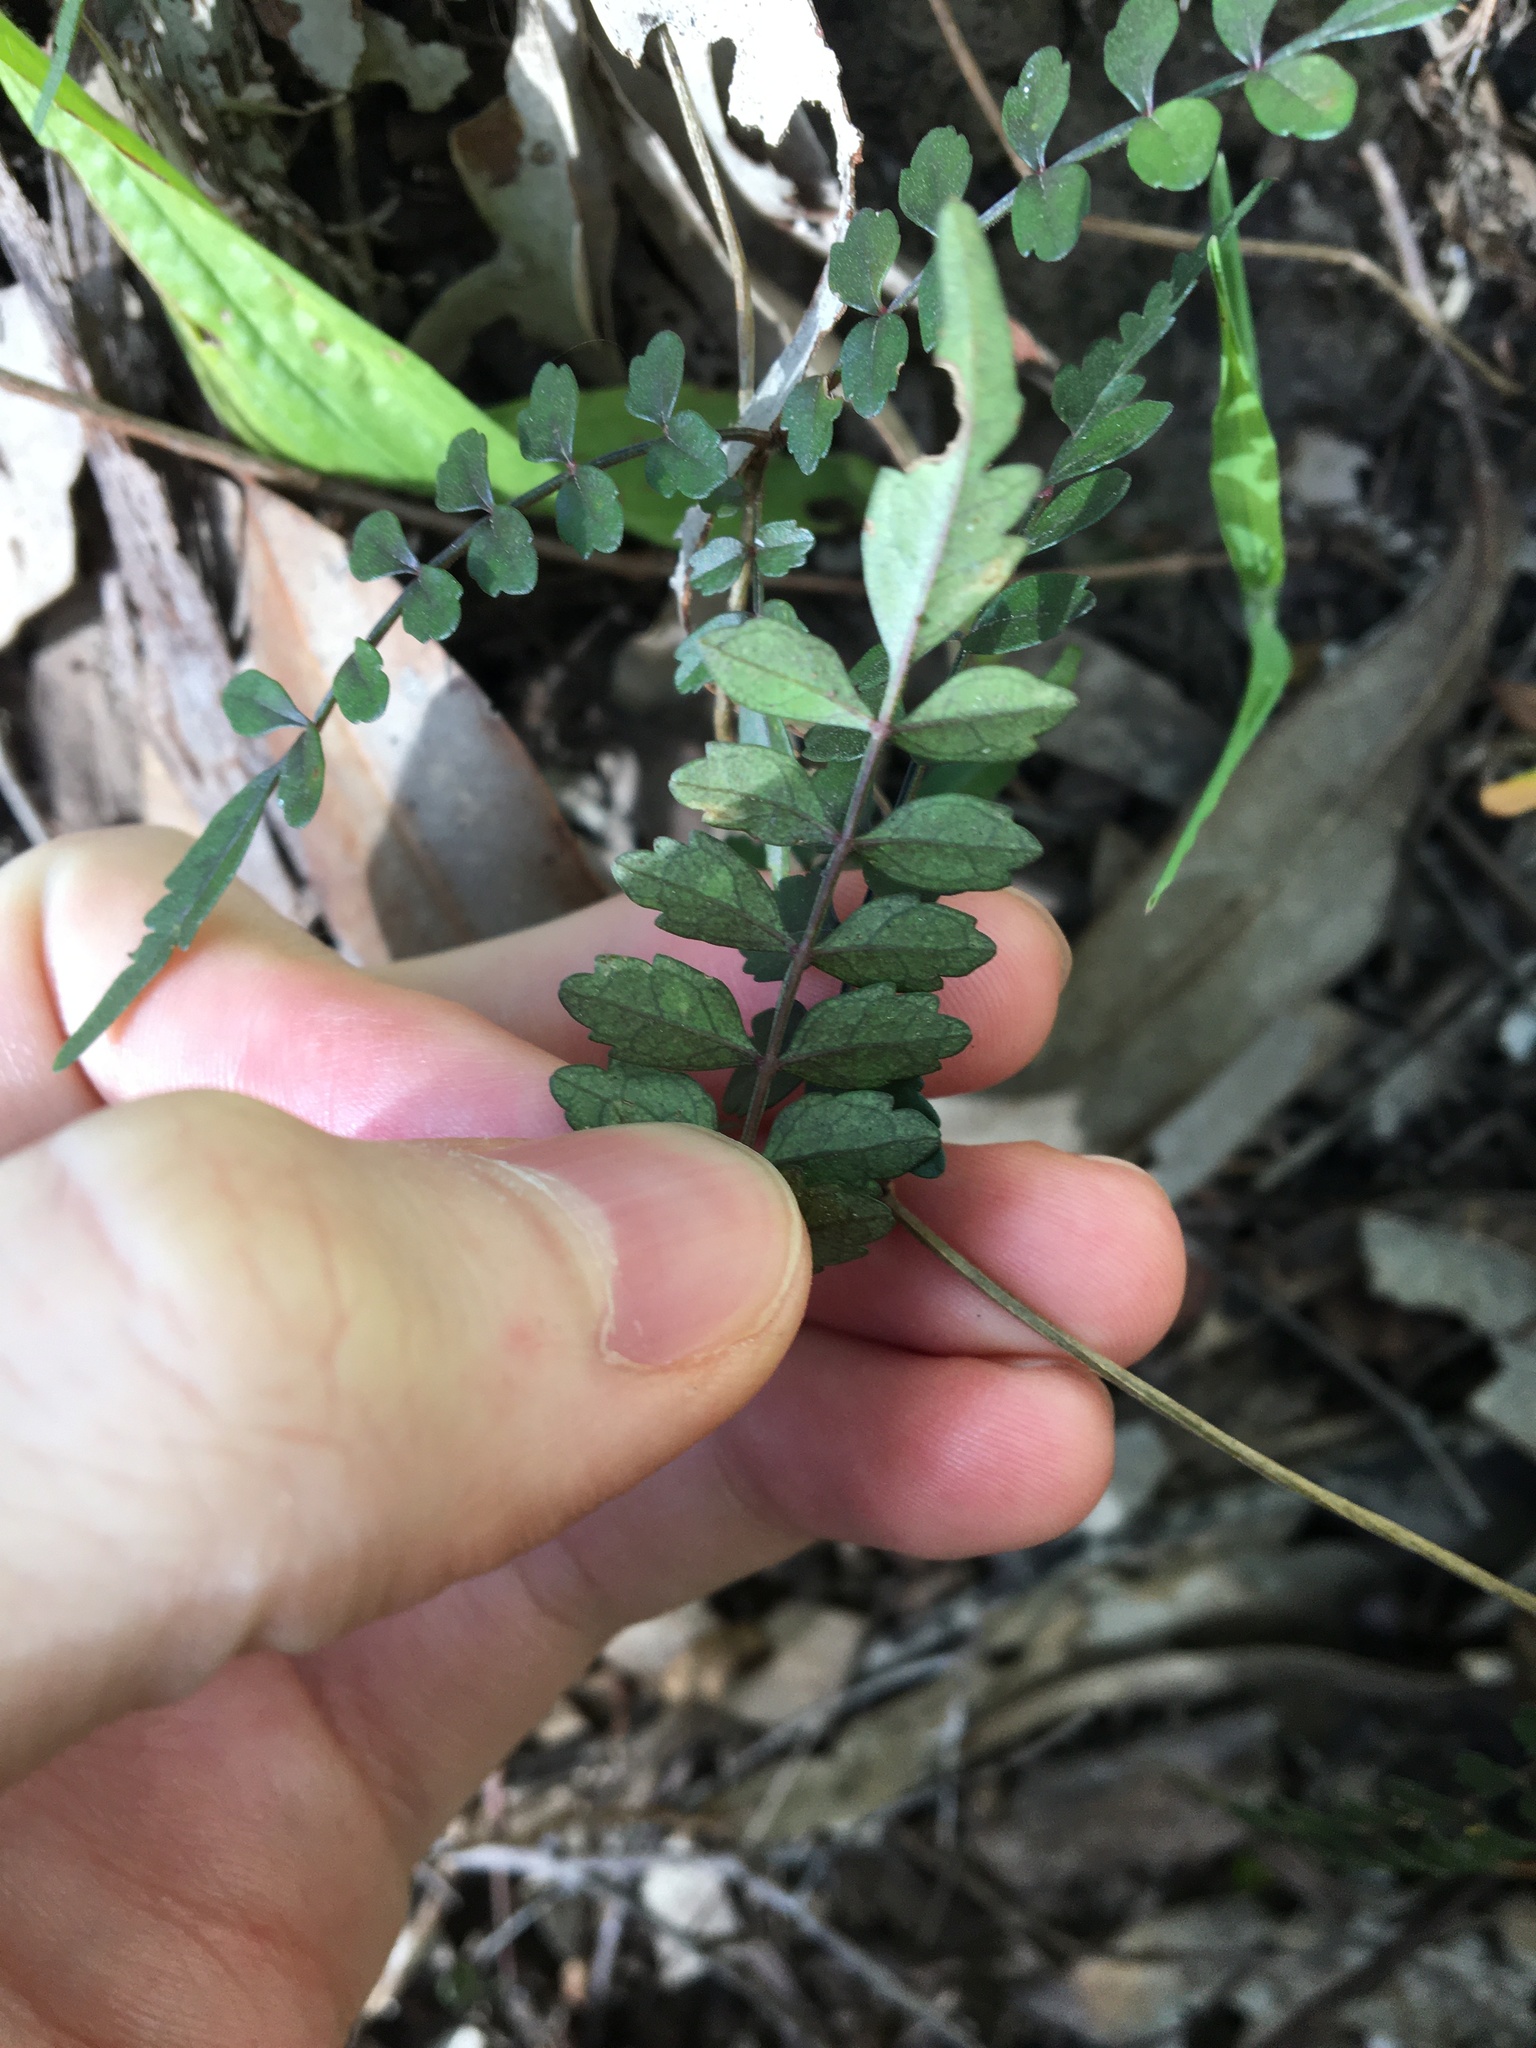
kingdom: Plantae
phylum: Tracheophyta
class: Magnoliopsida
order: Lamiales
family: Bignoniaceae
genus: Pandorea
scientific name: Pandorea pandorana
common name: Wonga-wonga-vine
